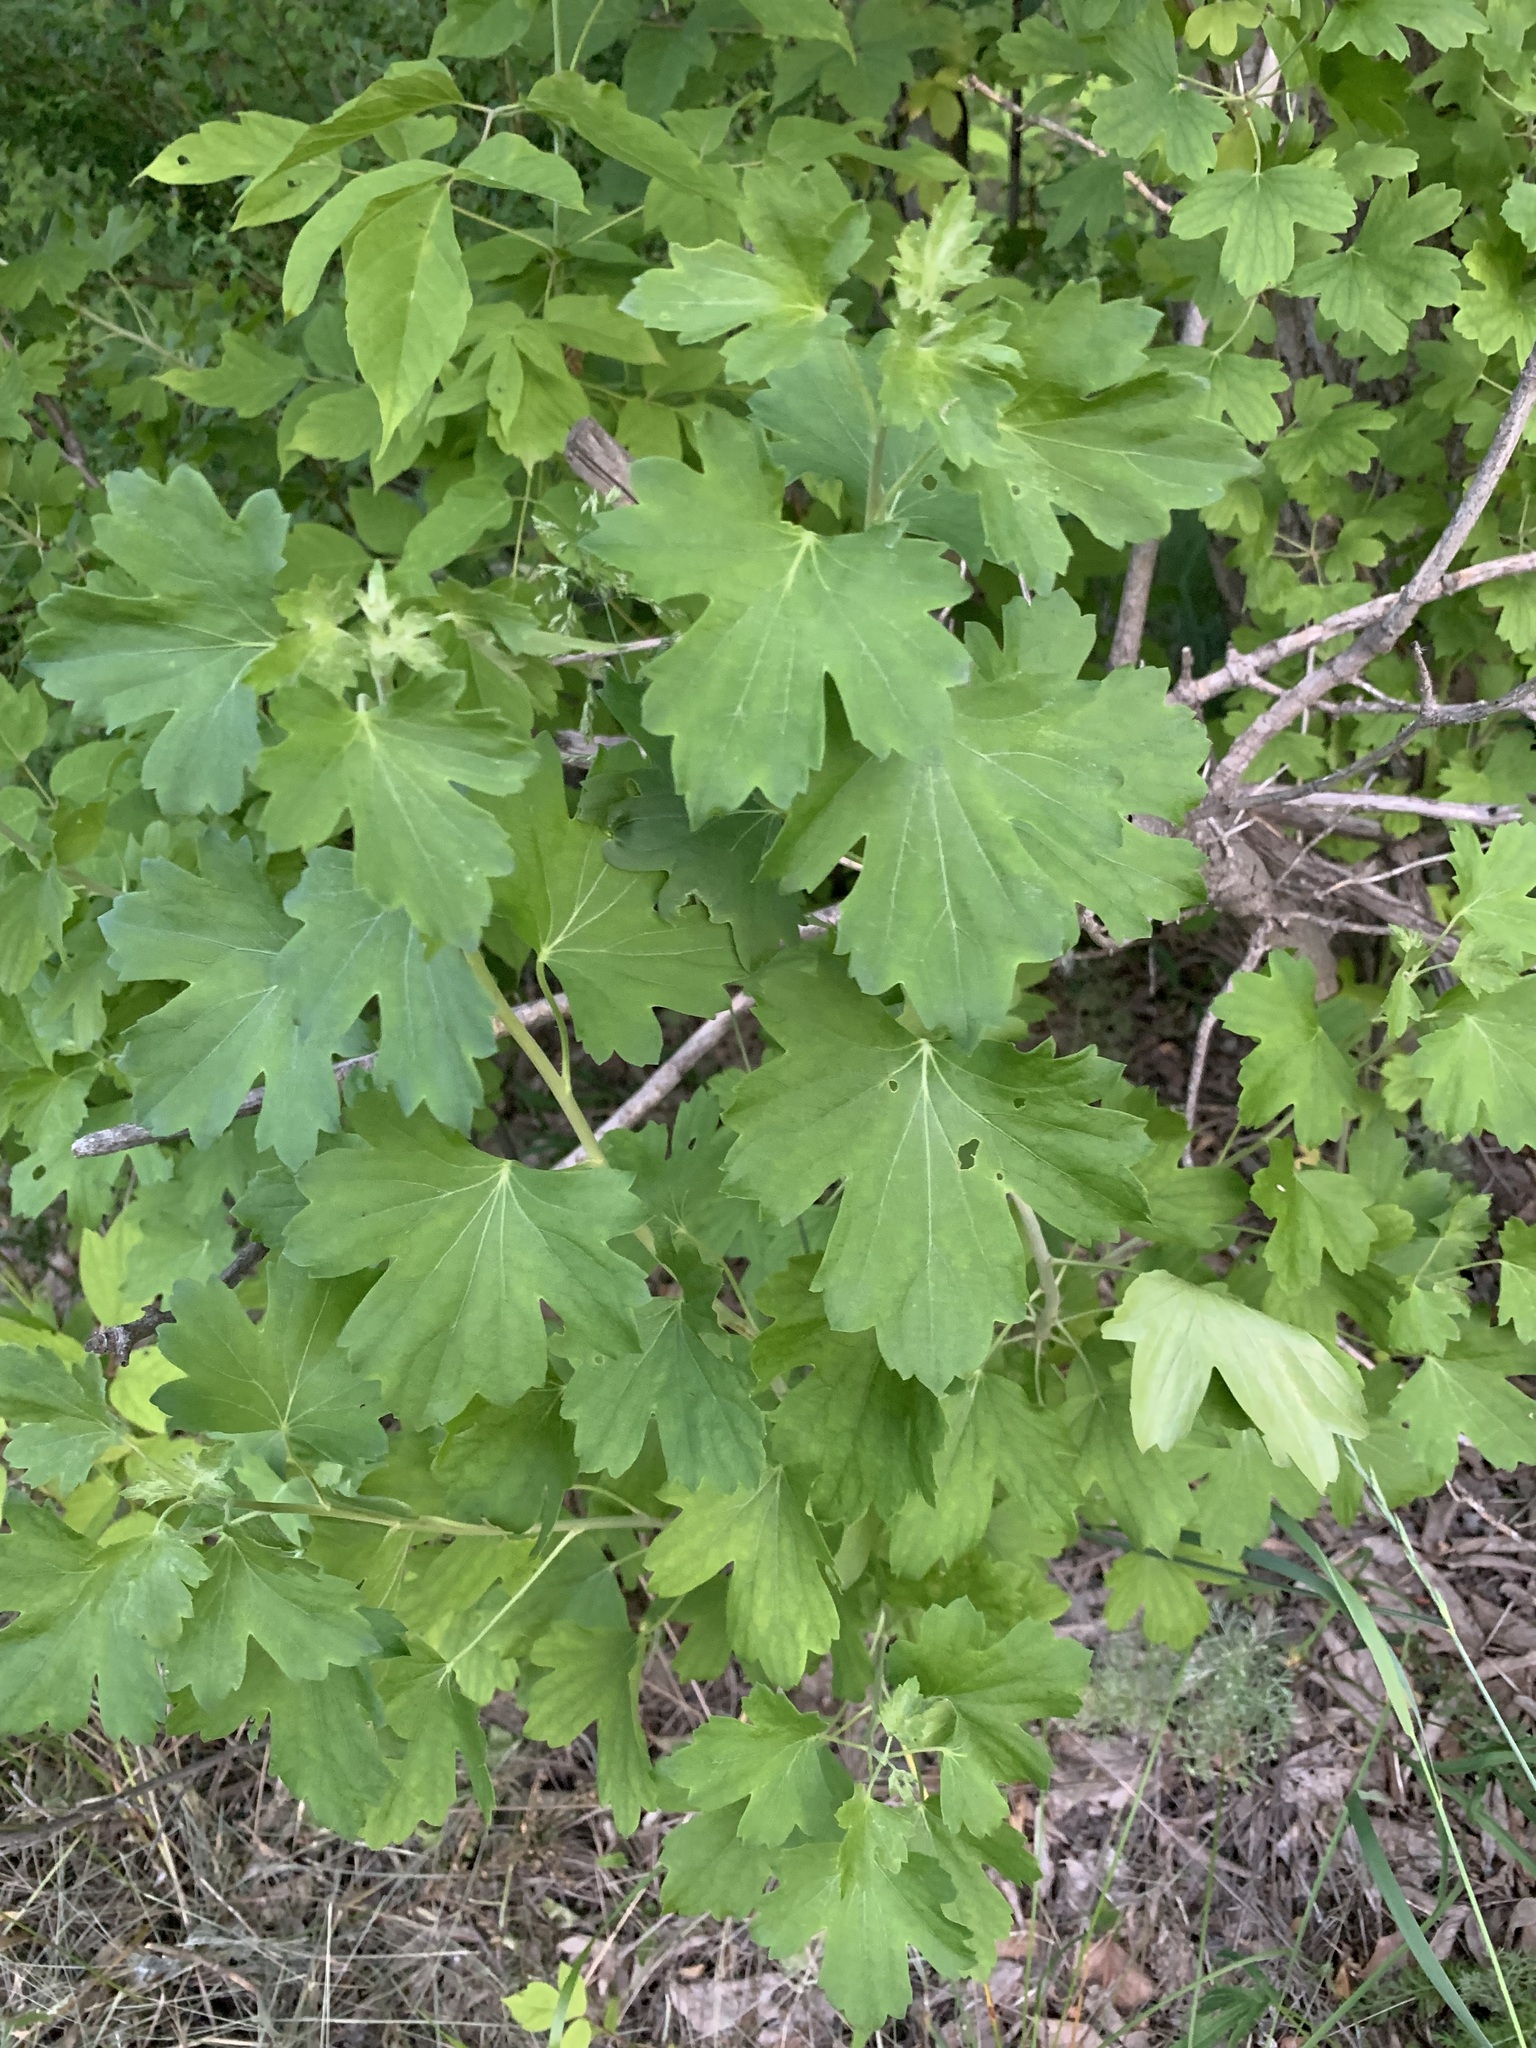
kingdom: Plantae
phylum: Tracheophyta
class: Magnoliopsida
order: Saxifragales
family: Grossulariaceae
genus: Ribes
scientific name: Ribes aureum
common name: Golden currant
